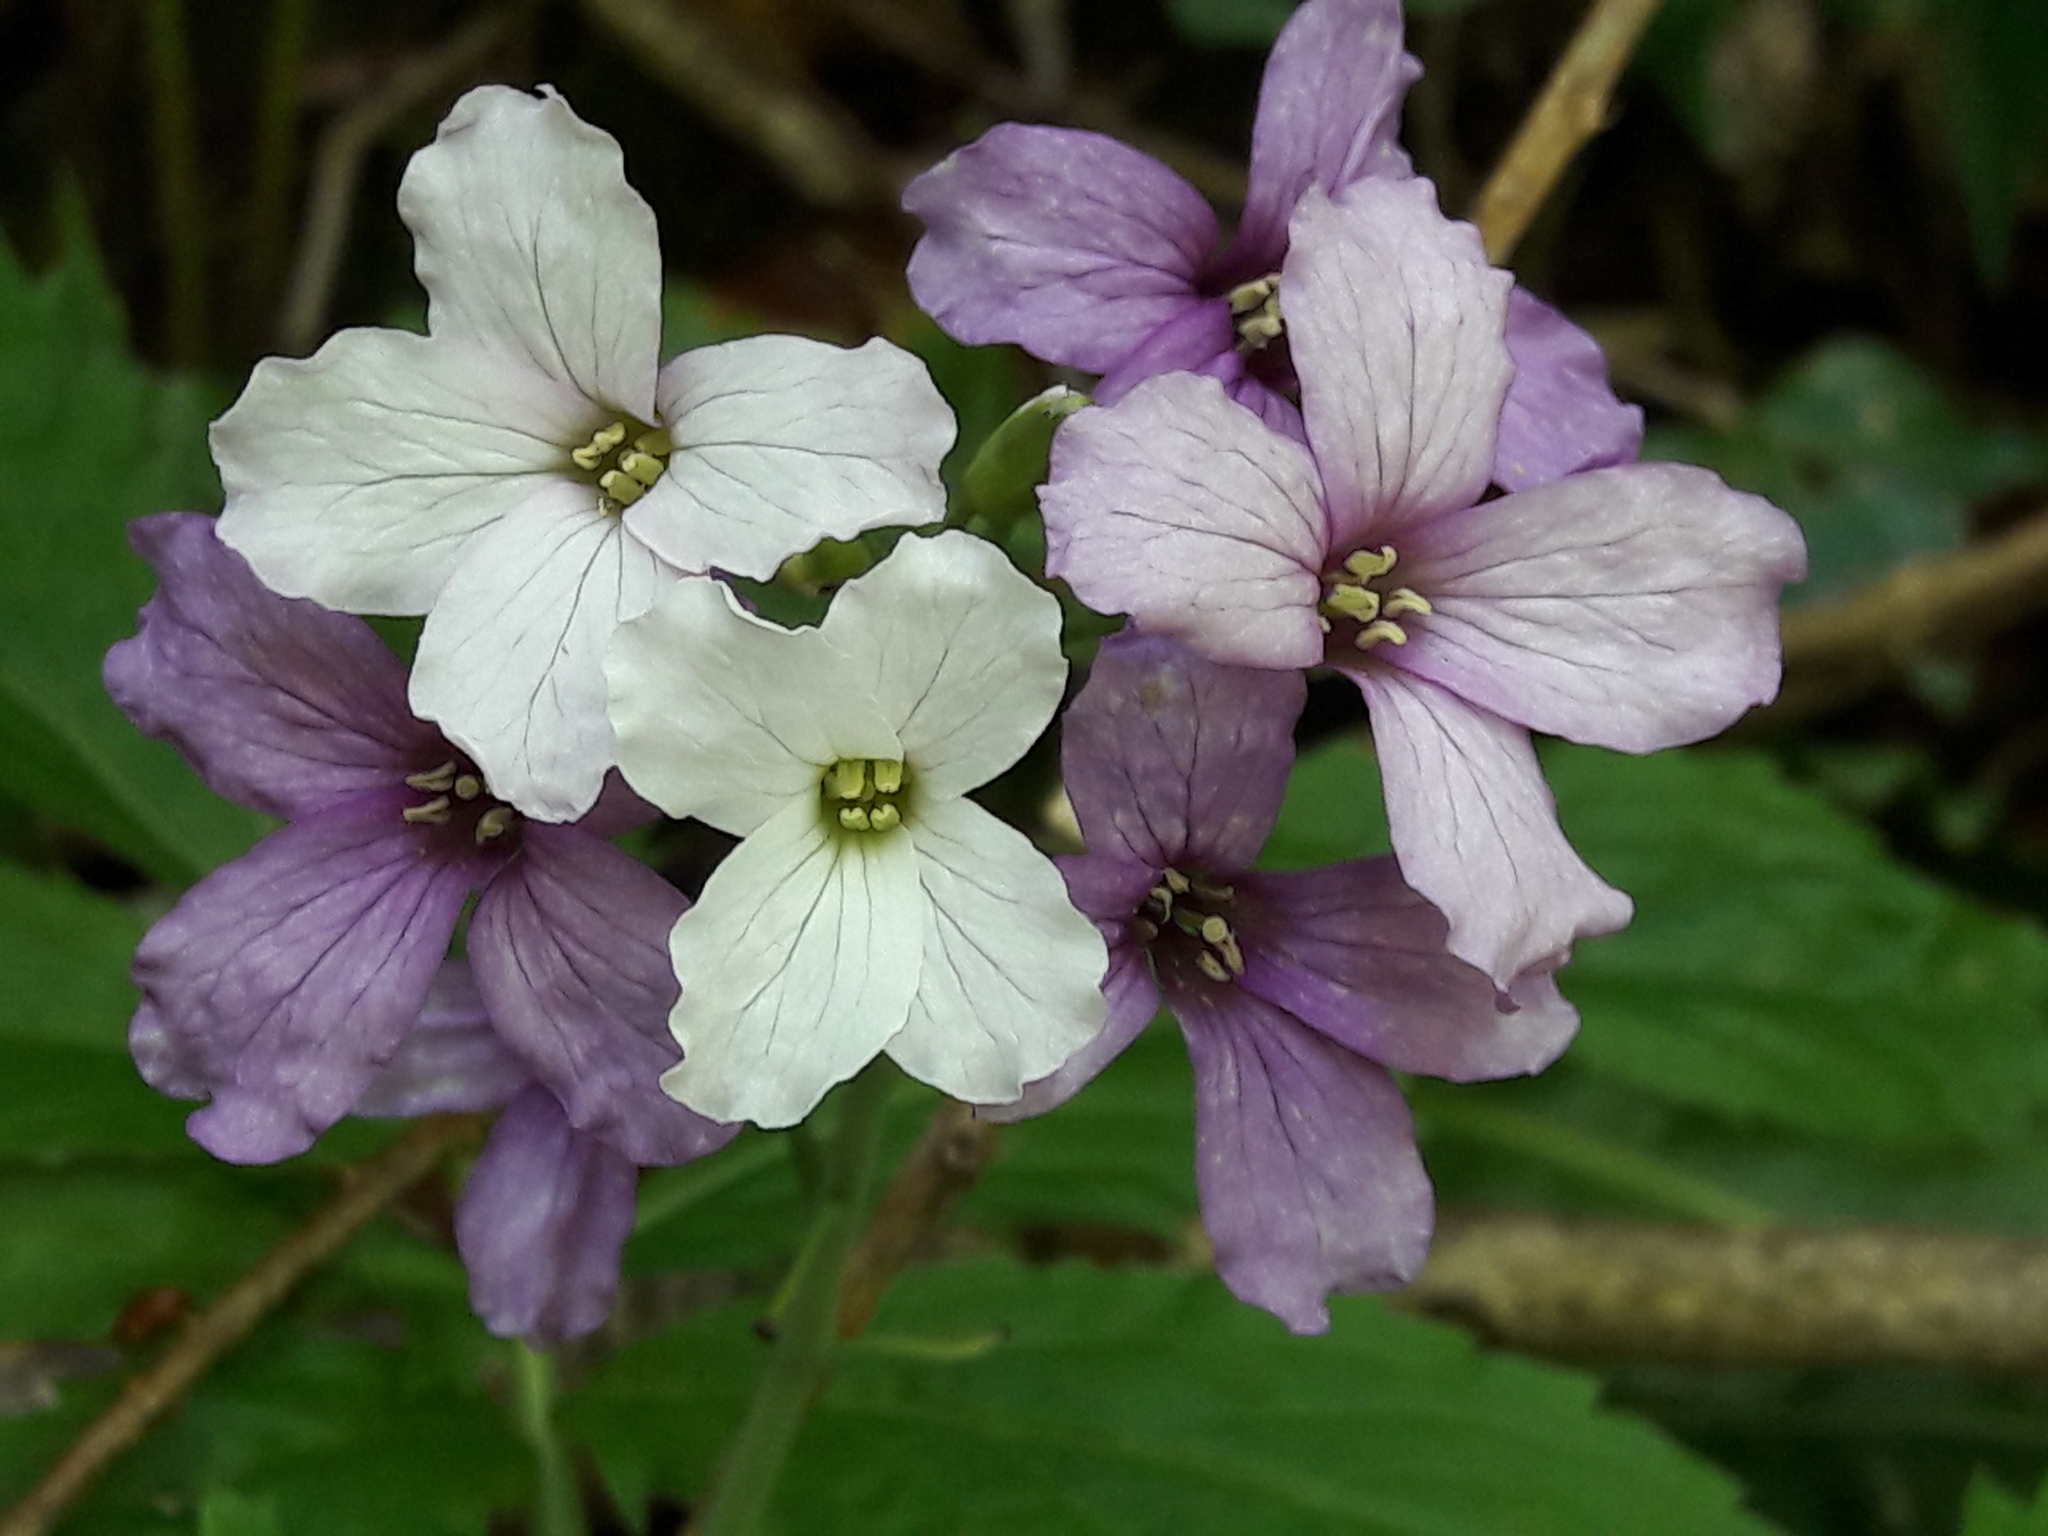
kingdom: Plantae
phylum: Tracheophyta
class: Magnoliopsida
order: Brassicales
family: Brassicaceae
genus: Cardamine
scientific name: Cardamine heptaphylla
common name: Pinnate coralroot
